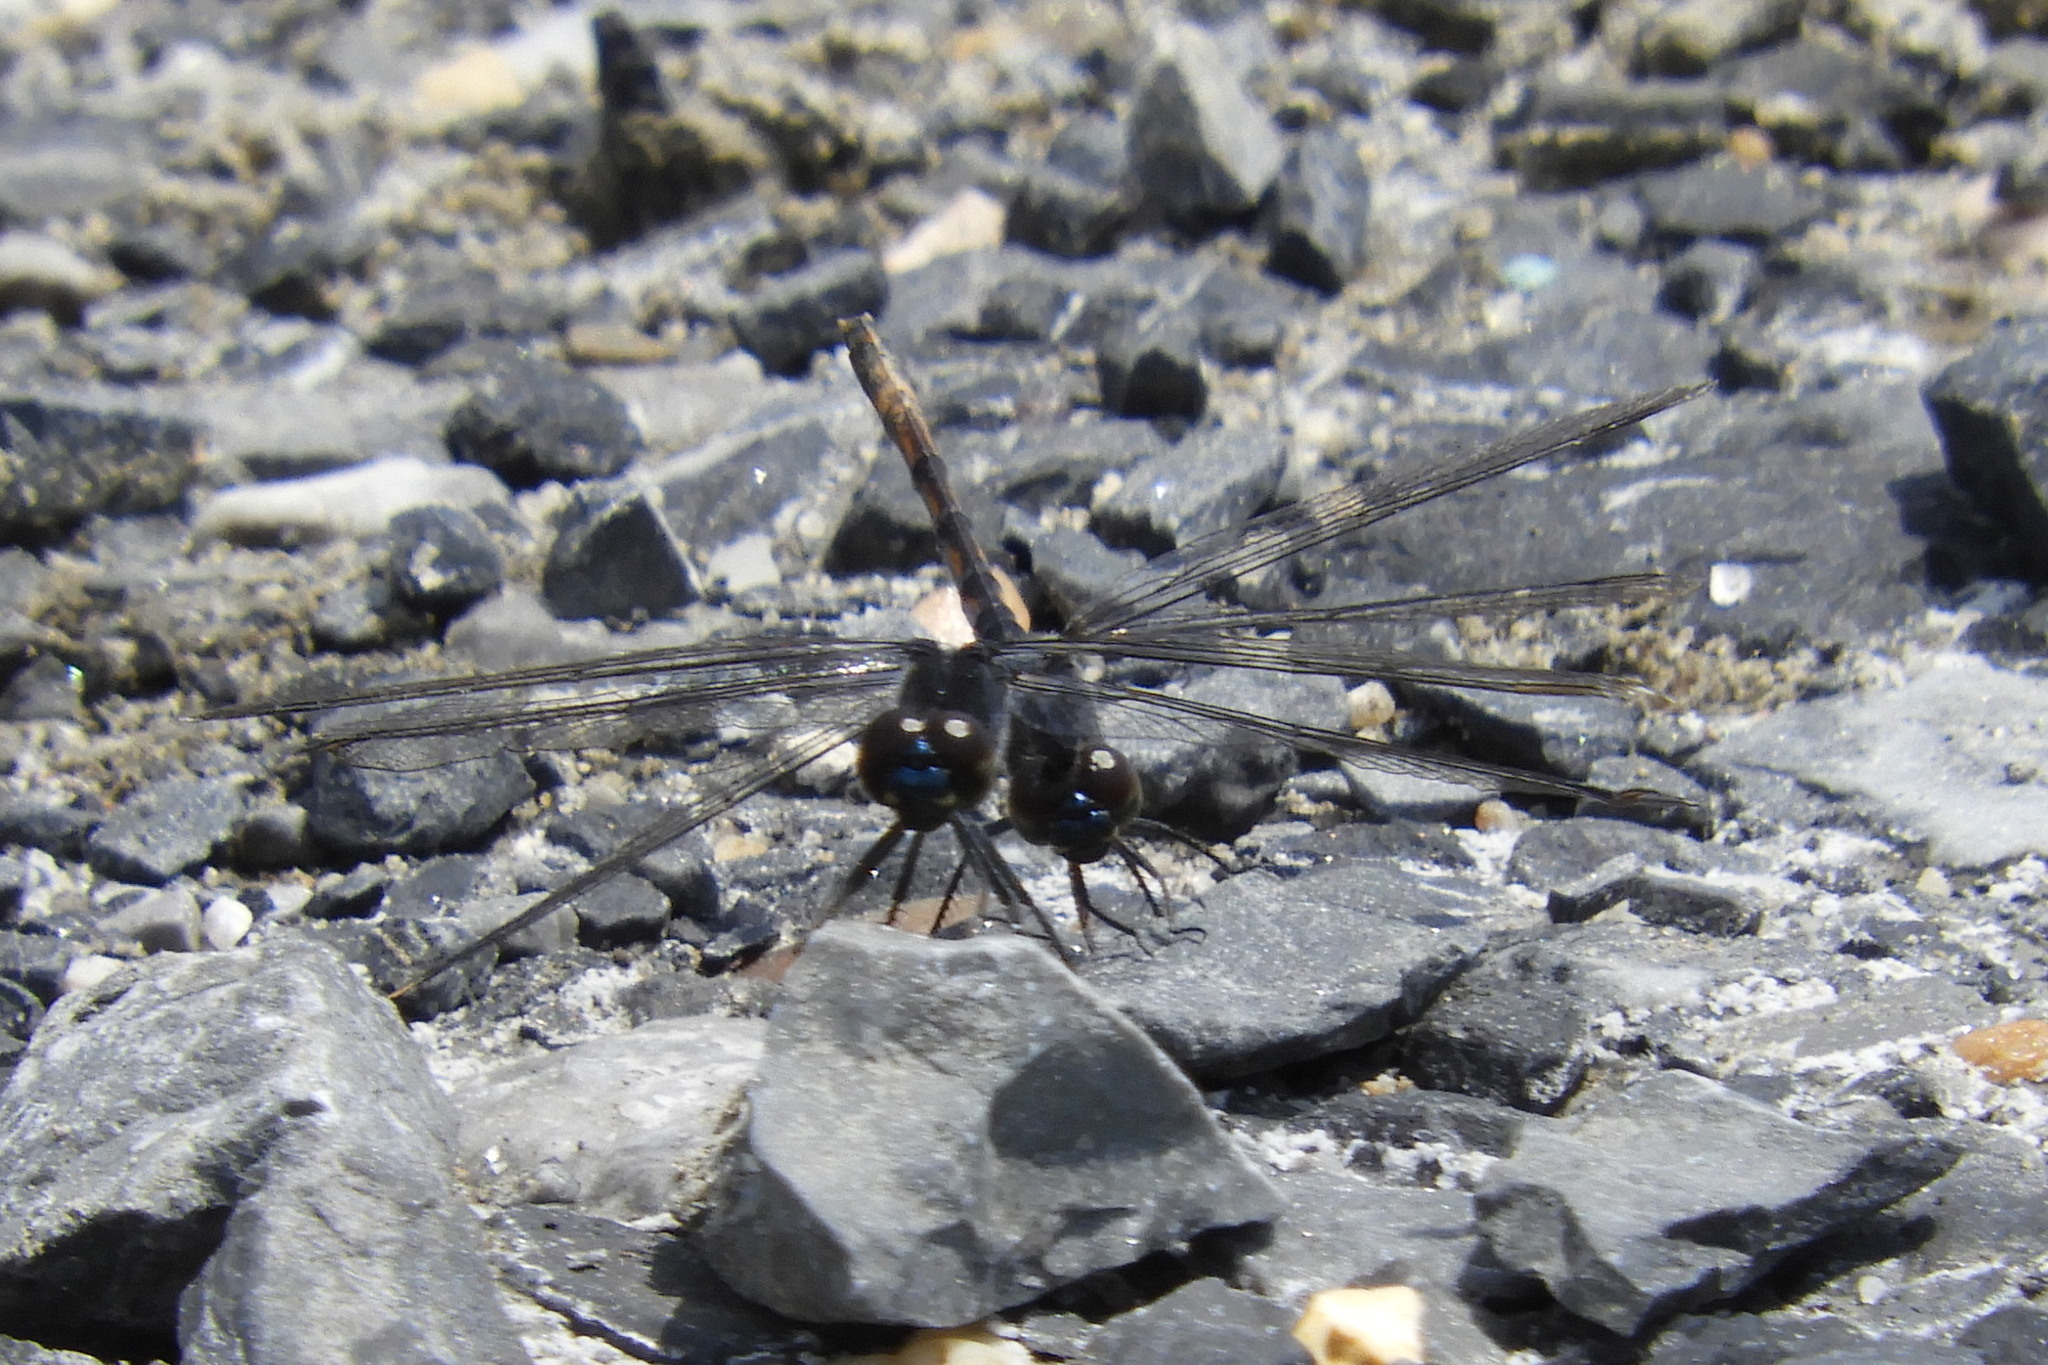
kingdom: Animalia
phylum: Arthropoda
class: Insecta
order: Odonata
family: Libellulidae
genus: Erythrodiplax
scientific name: Erythrodiplax berenice
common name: Seaside dragonlet
